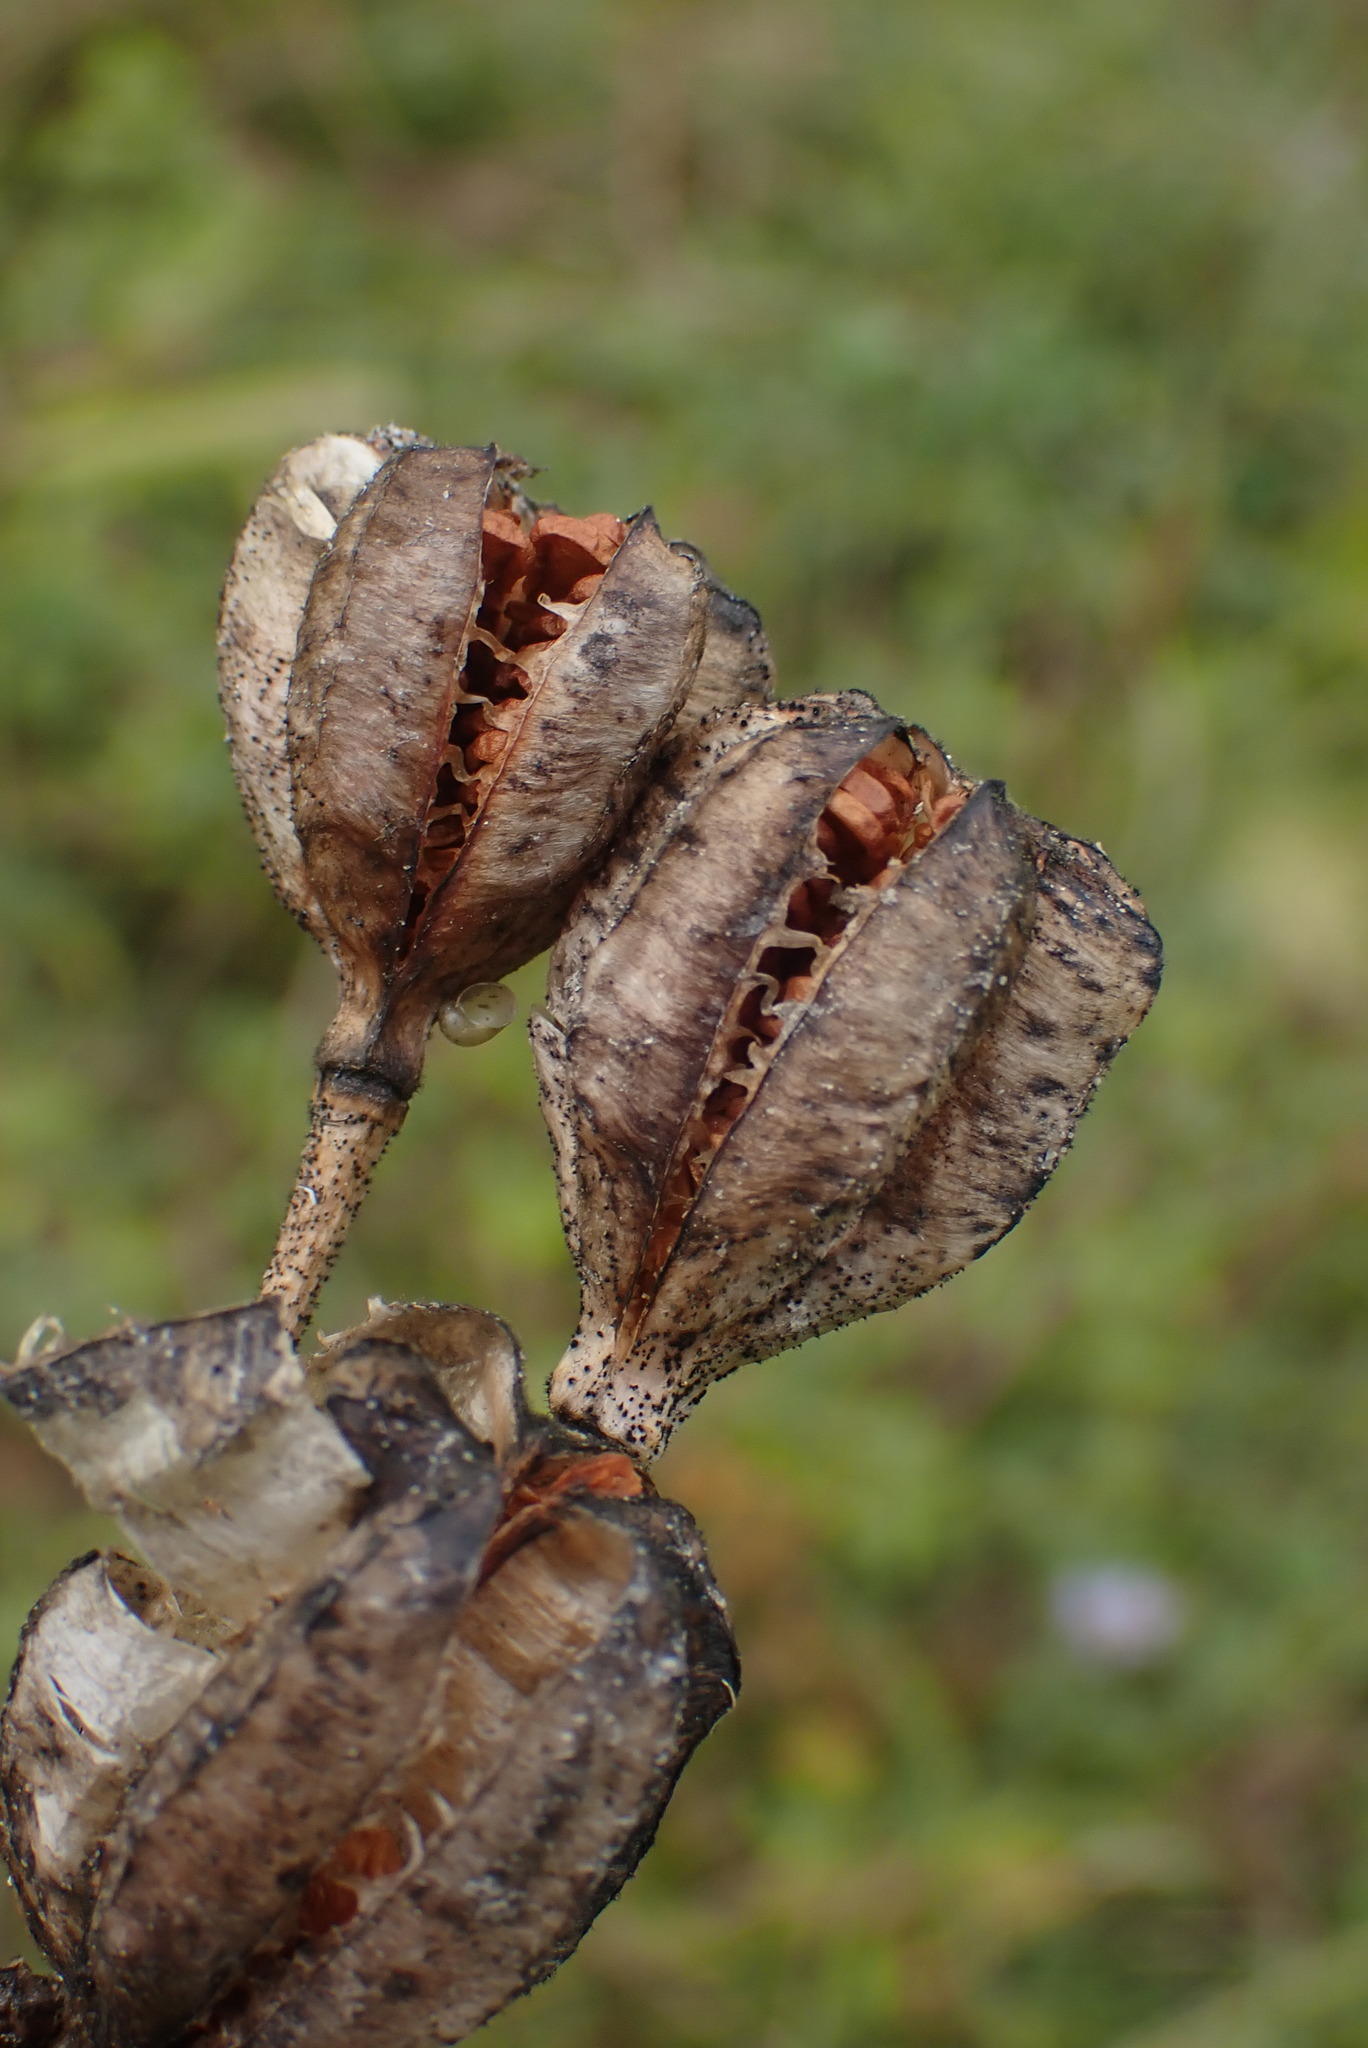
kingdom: Plantae
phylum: Tracheophyta
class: Liliopsida
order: Liliales
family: Liliaceae
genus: Fritillaria
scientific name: Fritillaria camschatcensis
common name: Kamchatka fritillary
